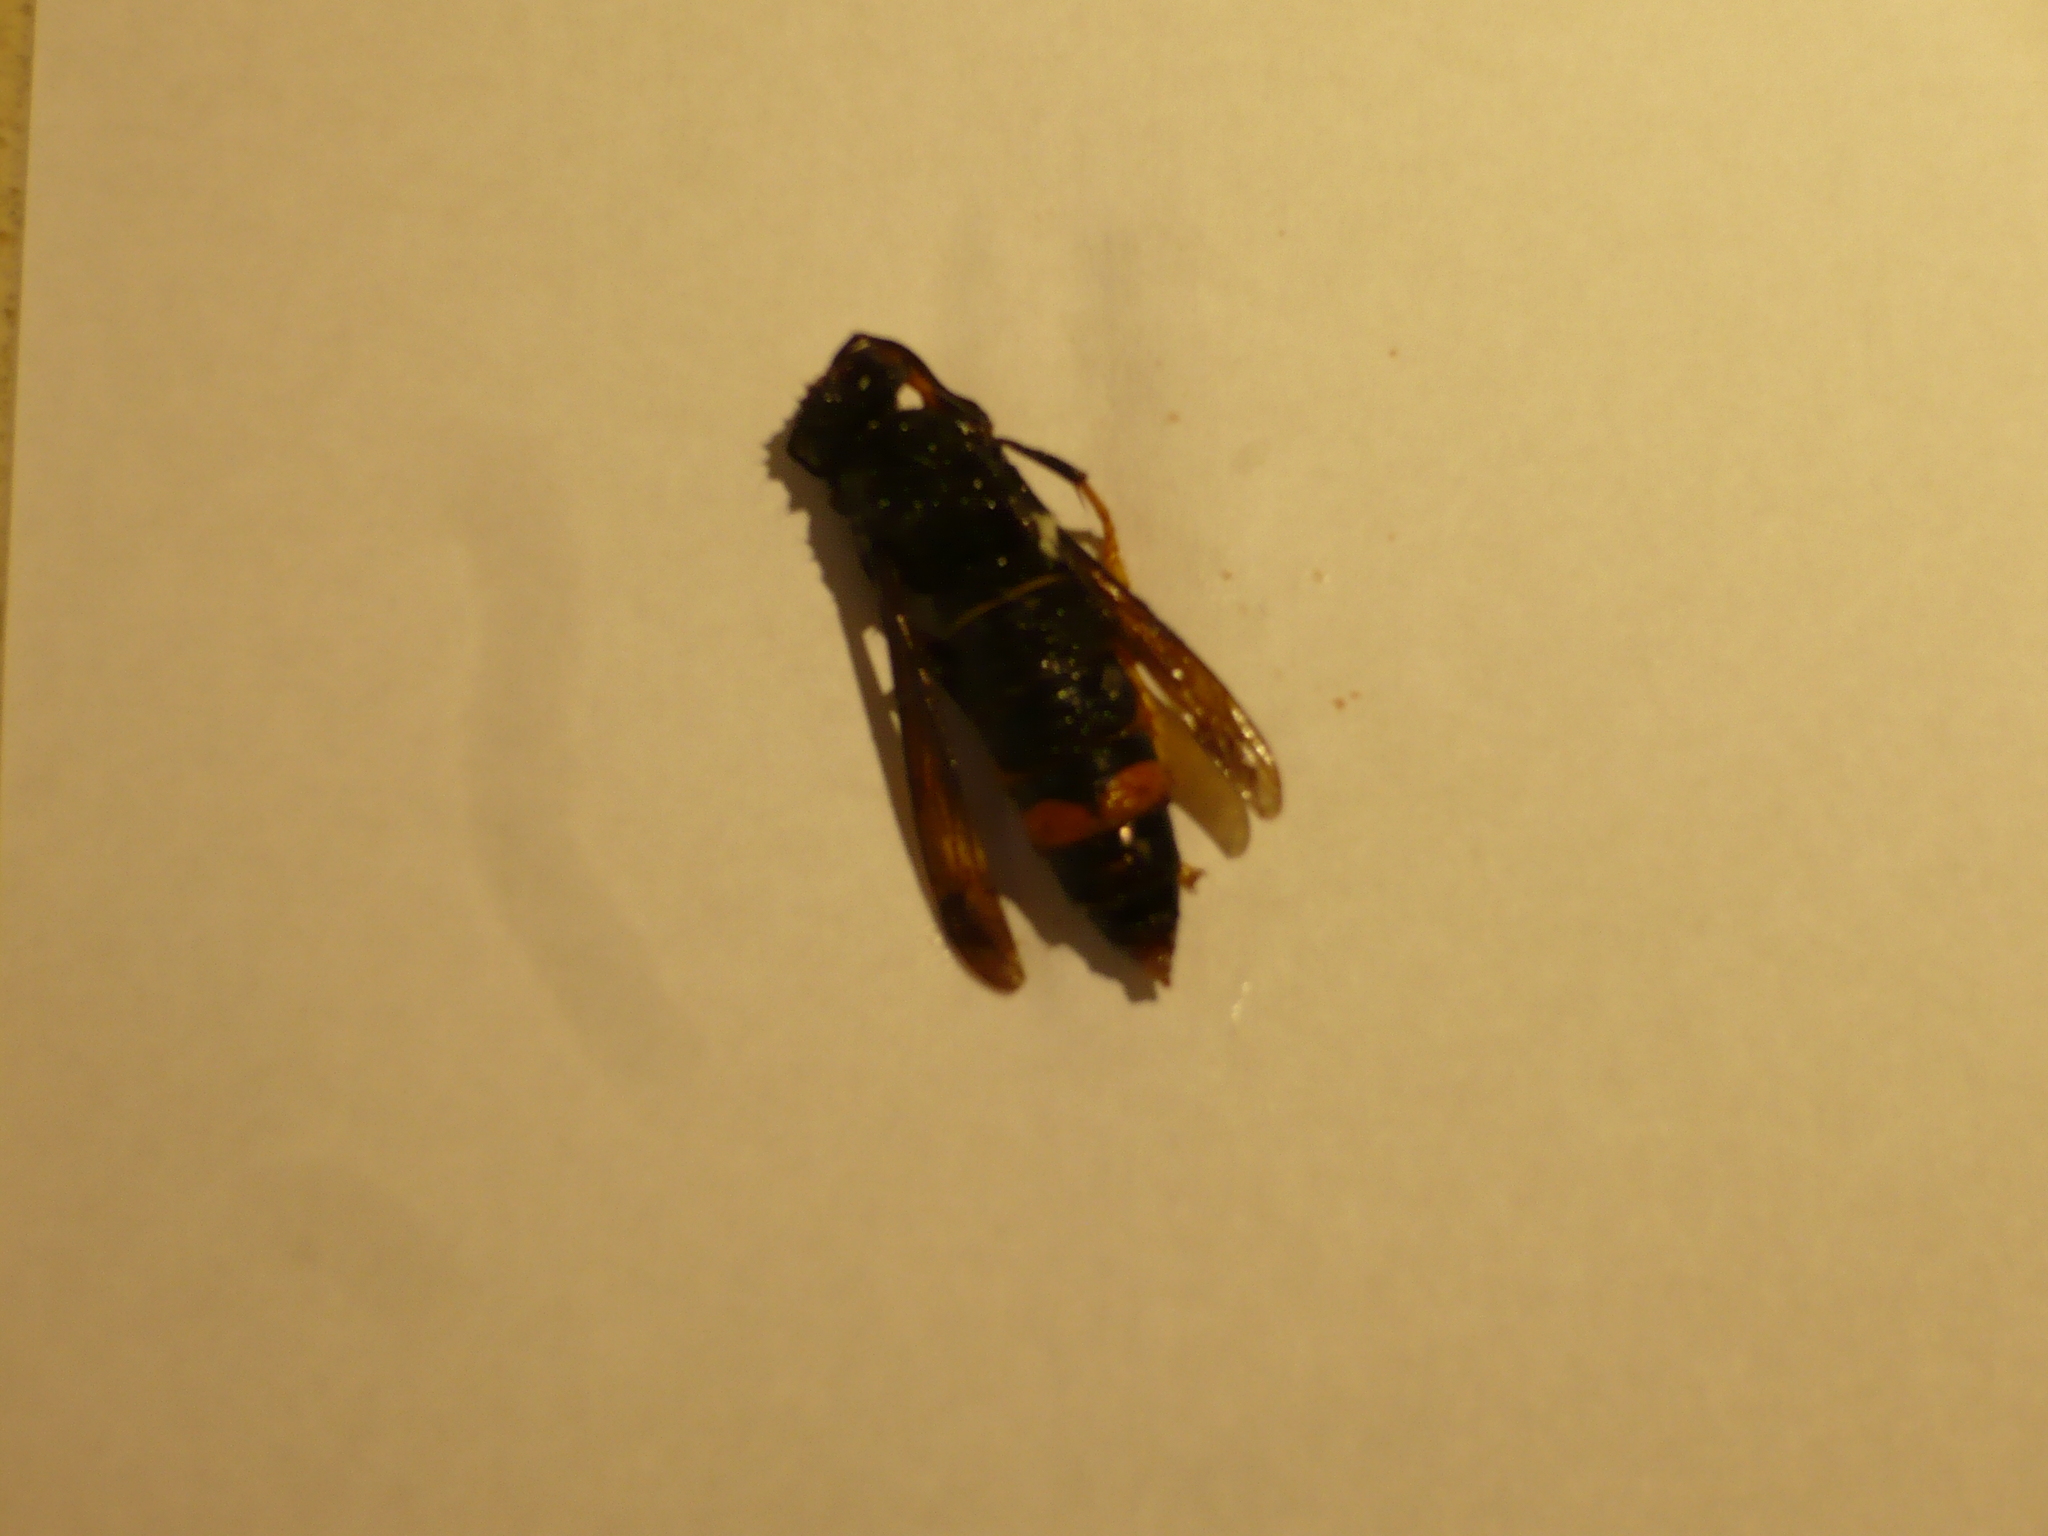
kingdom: Animalia
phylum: Arthropoda
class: Insecta
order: Hymenoptera
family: Vespidae
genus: Vespa
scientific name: Vespa velutina
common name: Asian hornet
